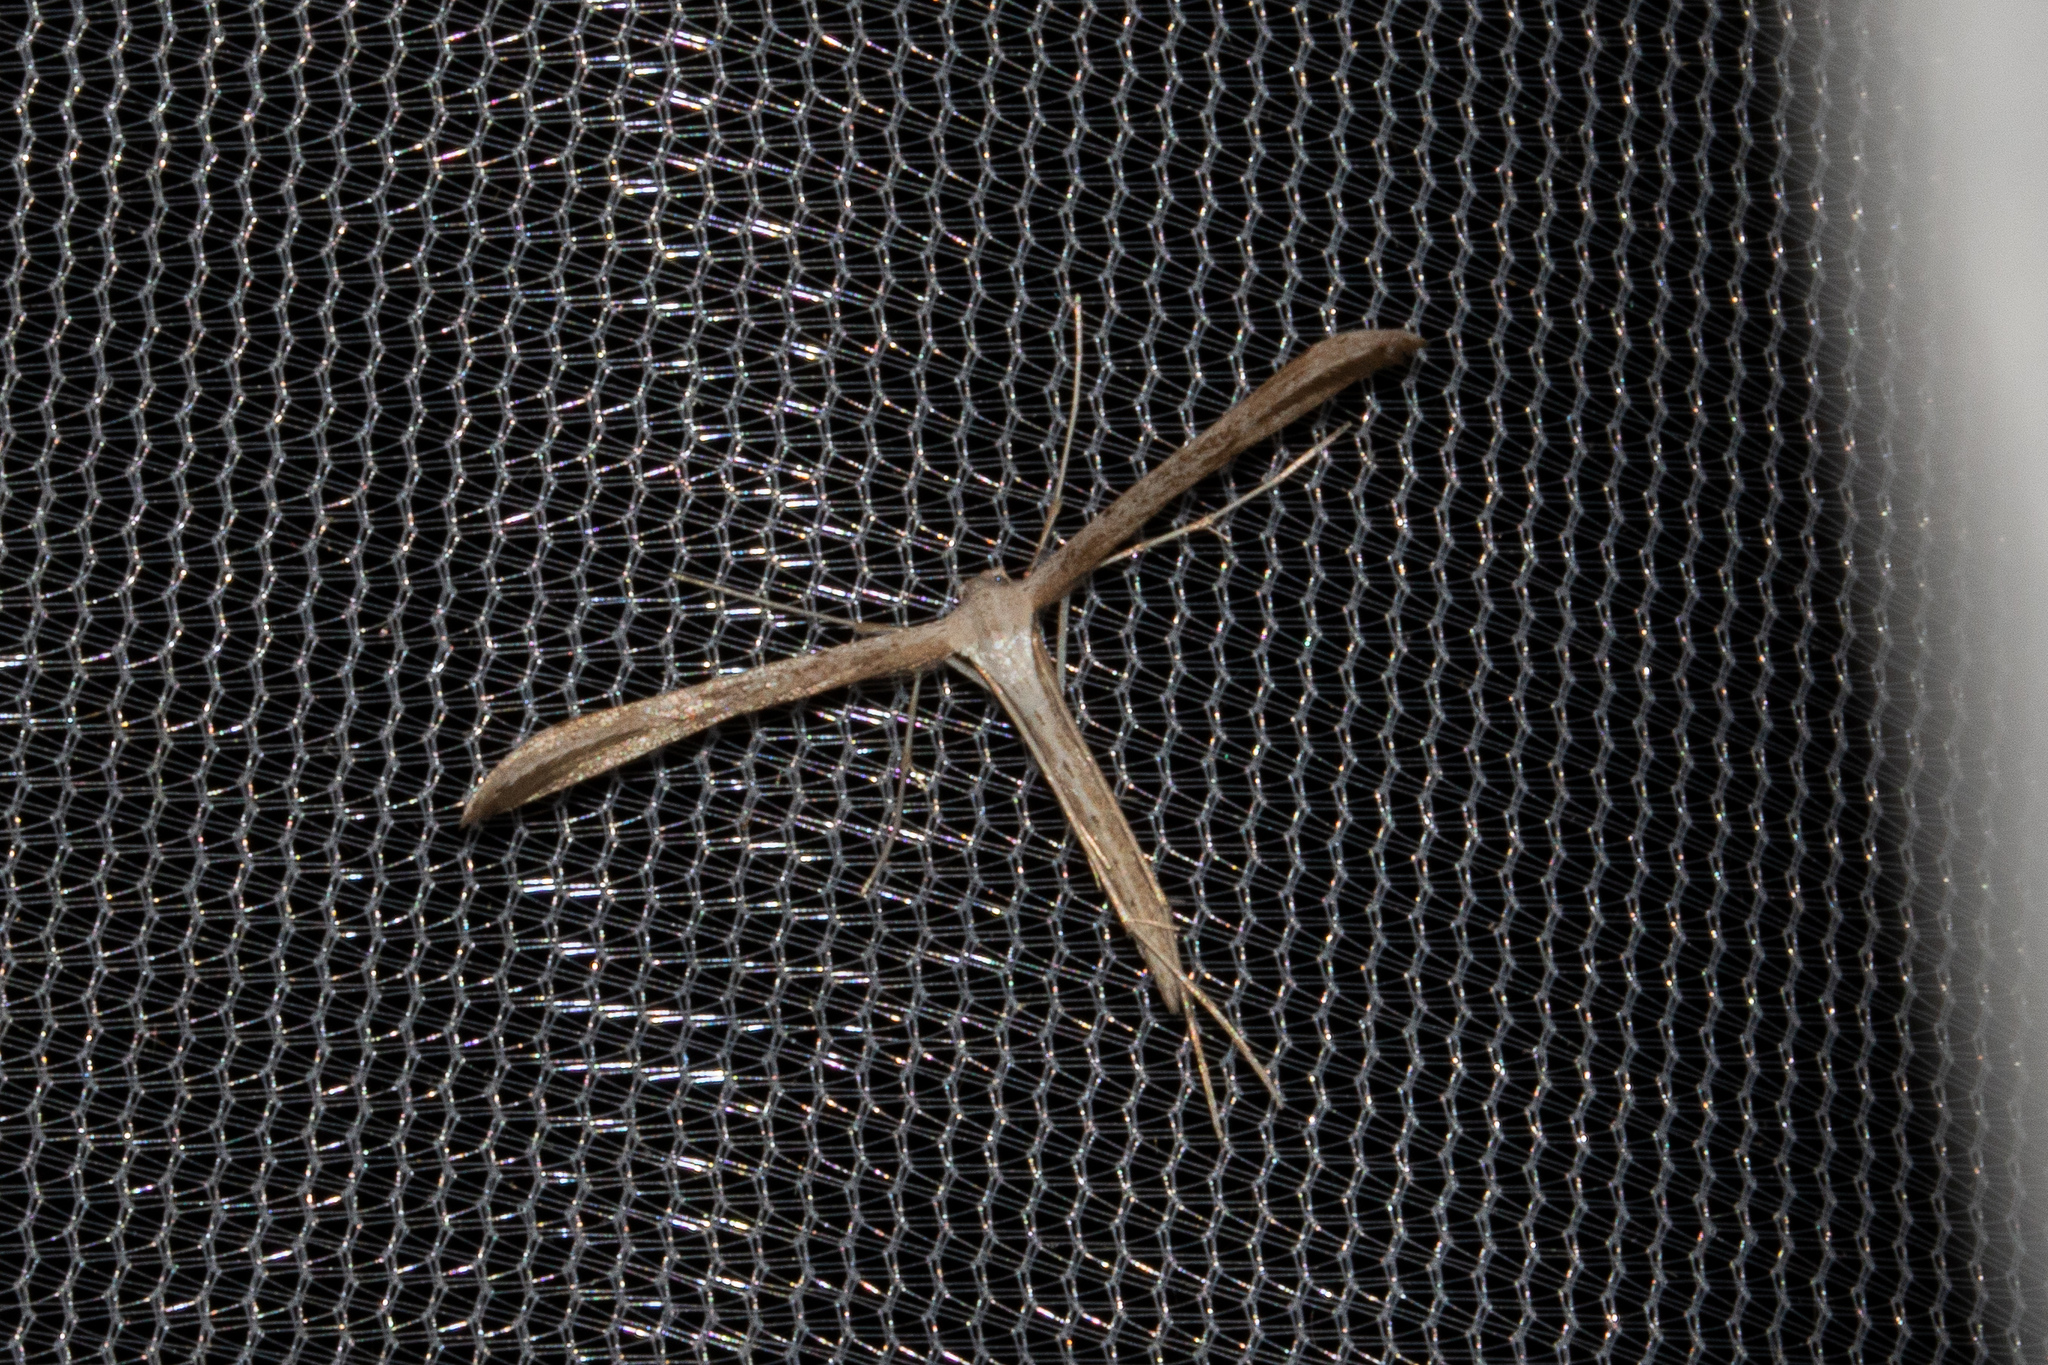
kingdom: Animalia
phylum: Arthropoda
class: Insecta
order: Lepidoptera
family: Pterophoridae
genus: Emmelina
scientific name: Emmelina monodactyla
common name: Common plume
